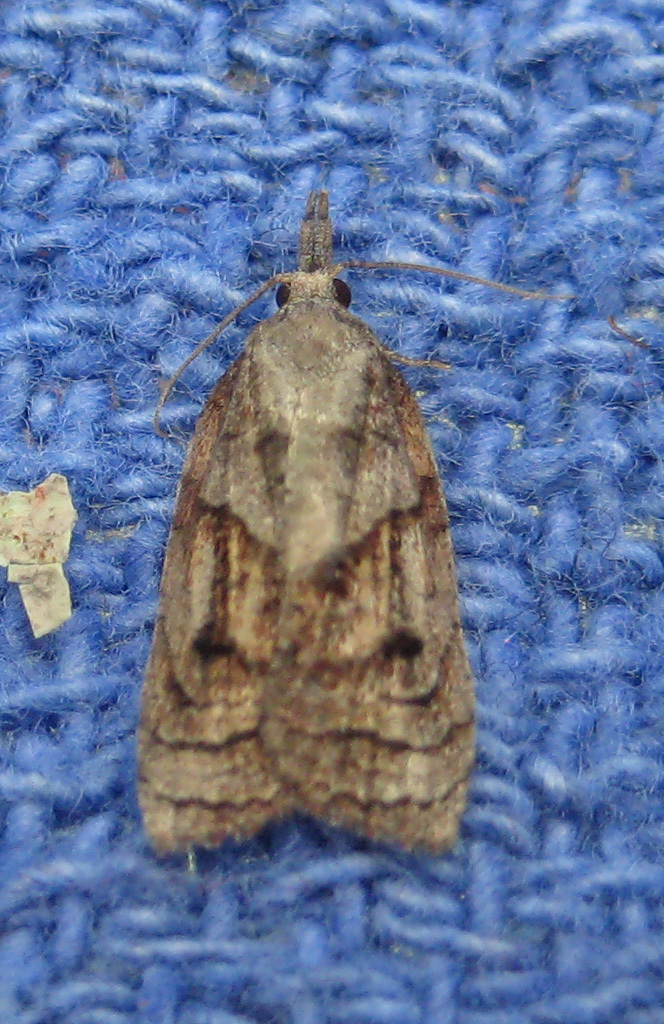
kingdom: Animalia
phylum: Arthropoda
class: Insecta
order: Lepidoptera
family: Tortricidae
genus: Platynota
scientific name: Platynota idaeusalis
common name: Tufted apple bud moth
